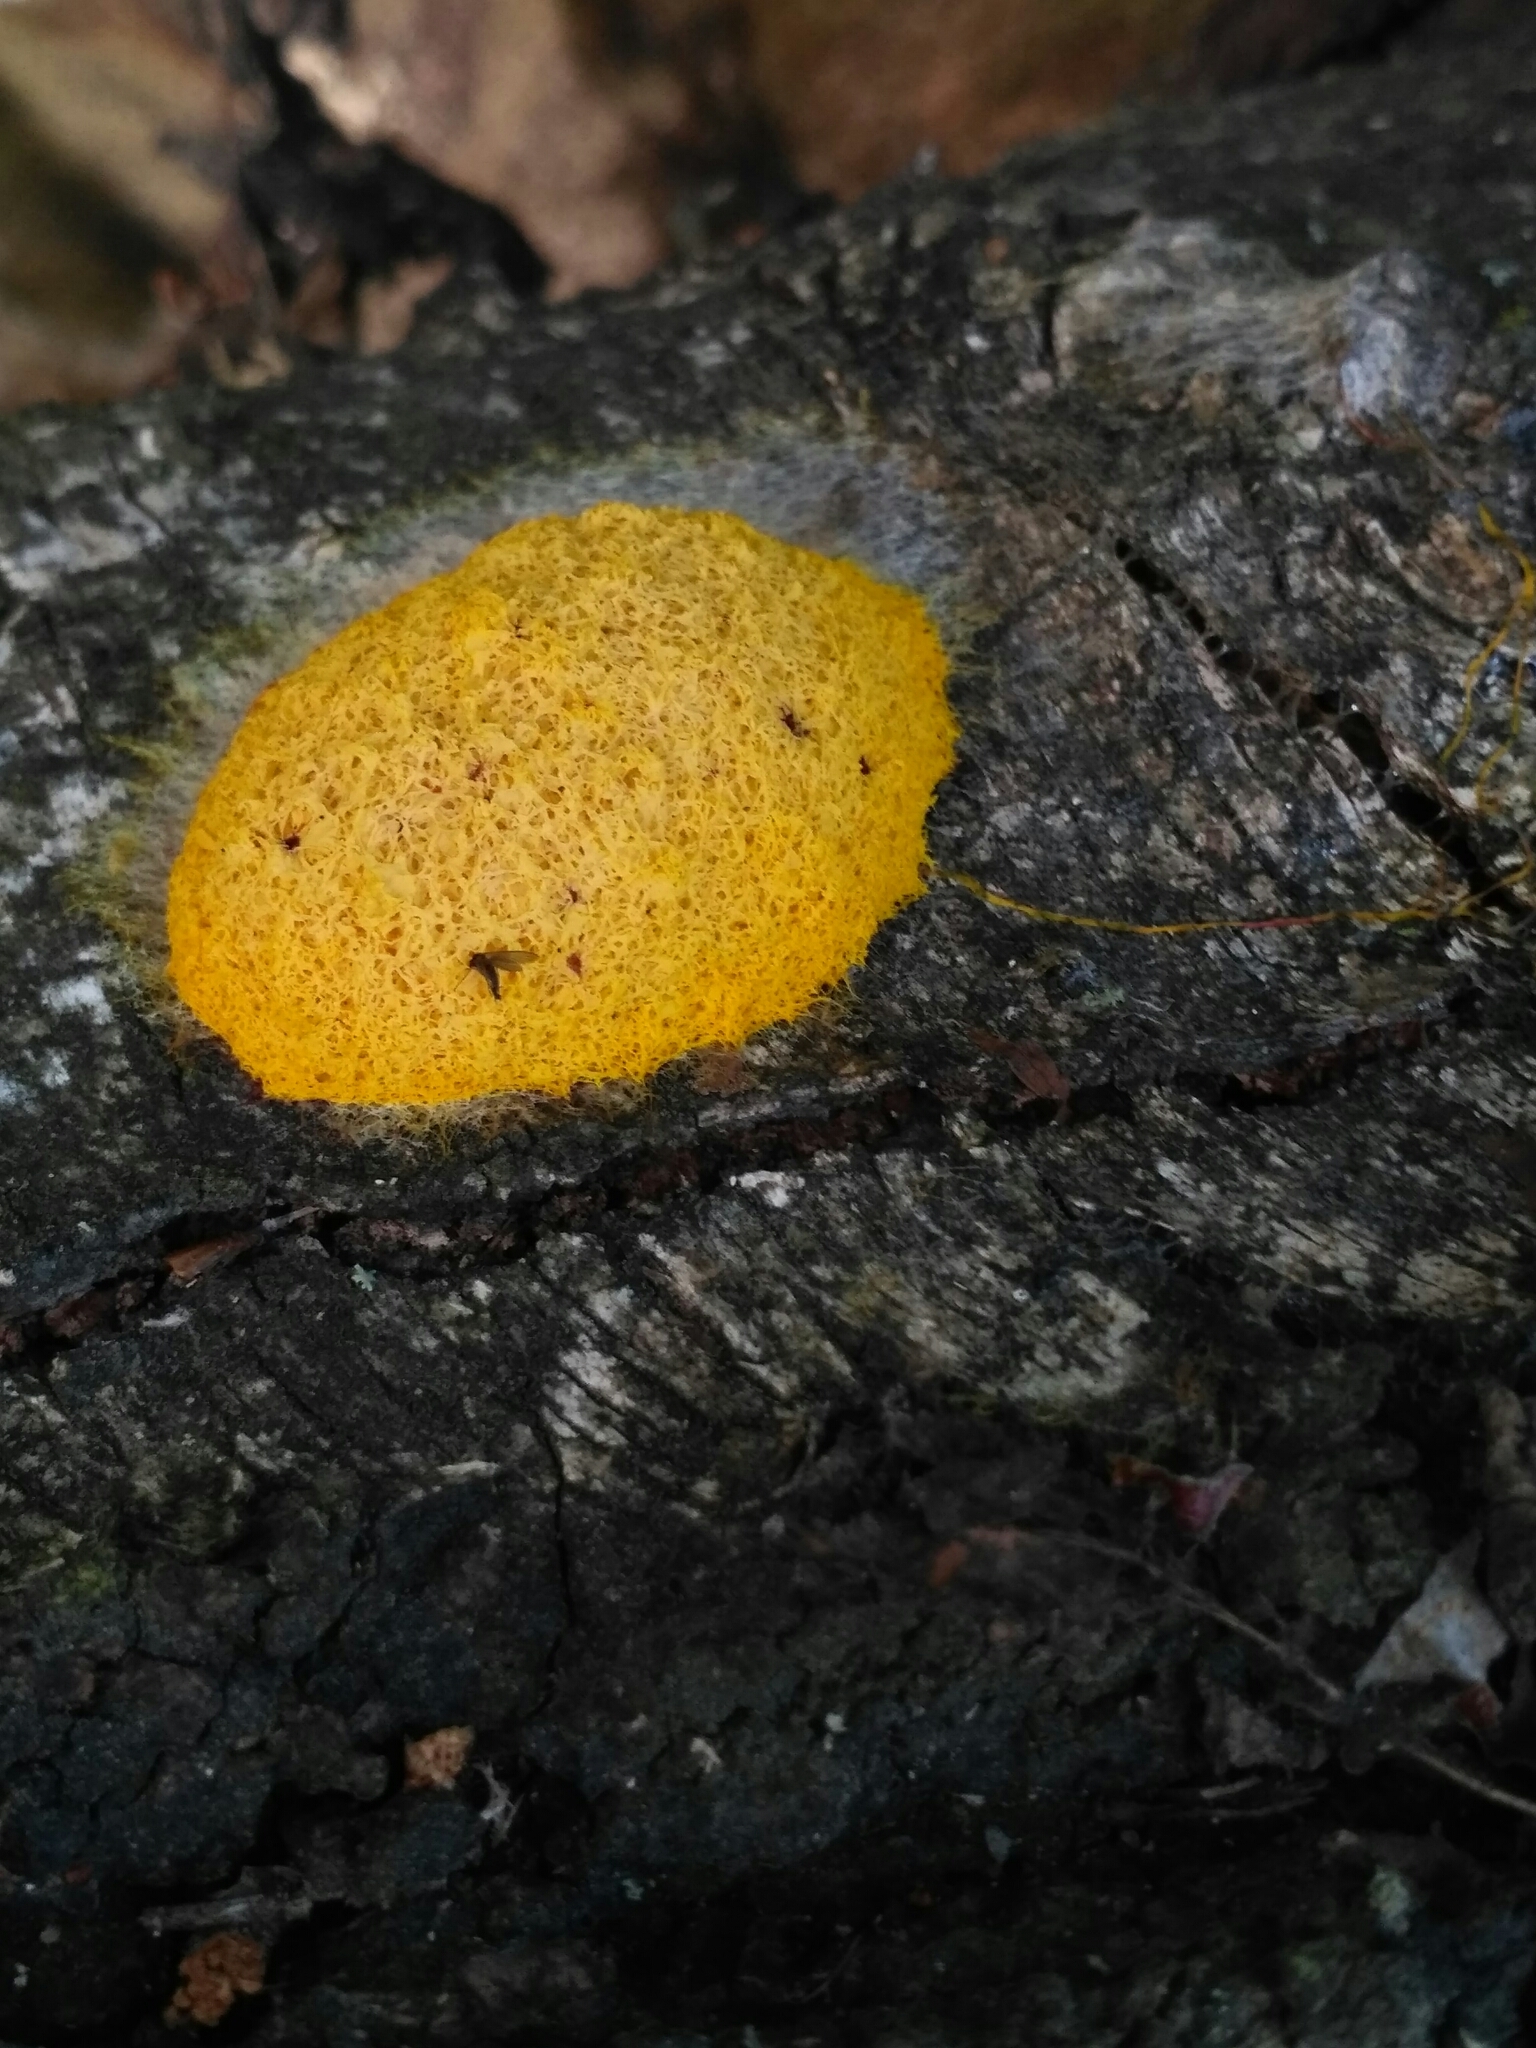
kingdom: Protozoa
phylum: Mycetozoa
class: Myxomycetes
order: Physarales
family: Physaraceae
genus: Fuligo
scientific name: Fuligo septica
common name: Dog vomit slime mold
